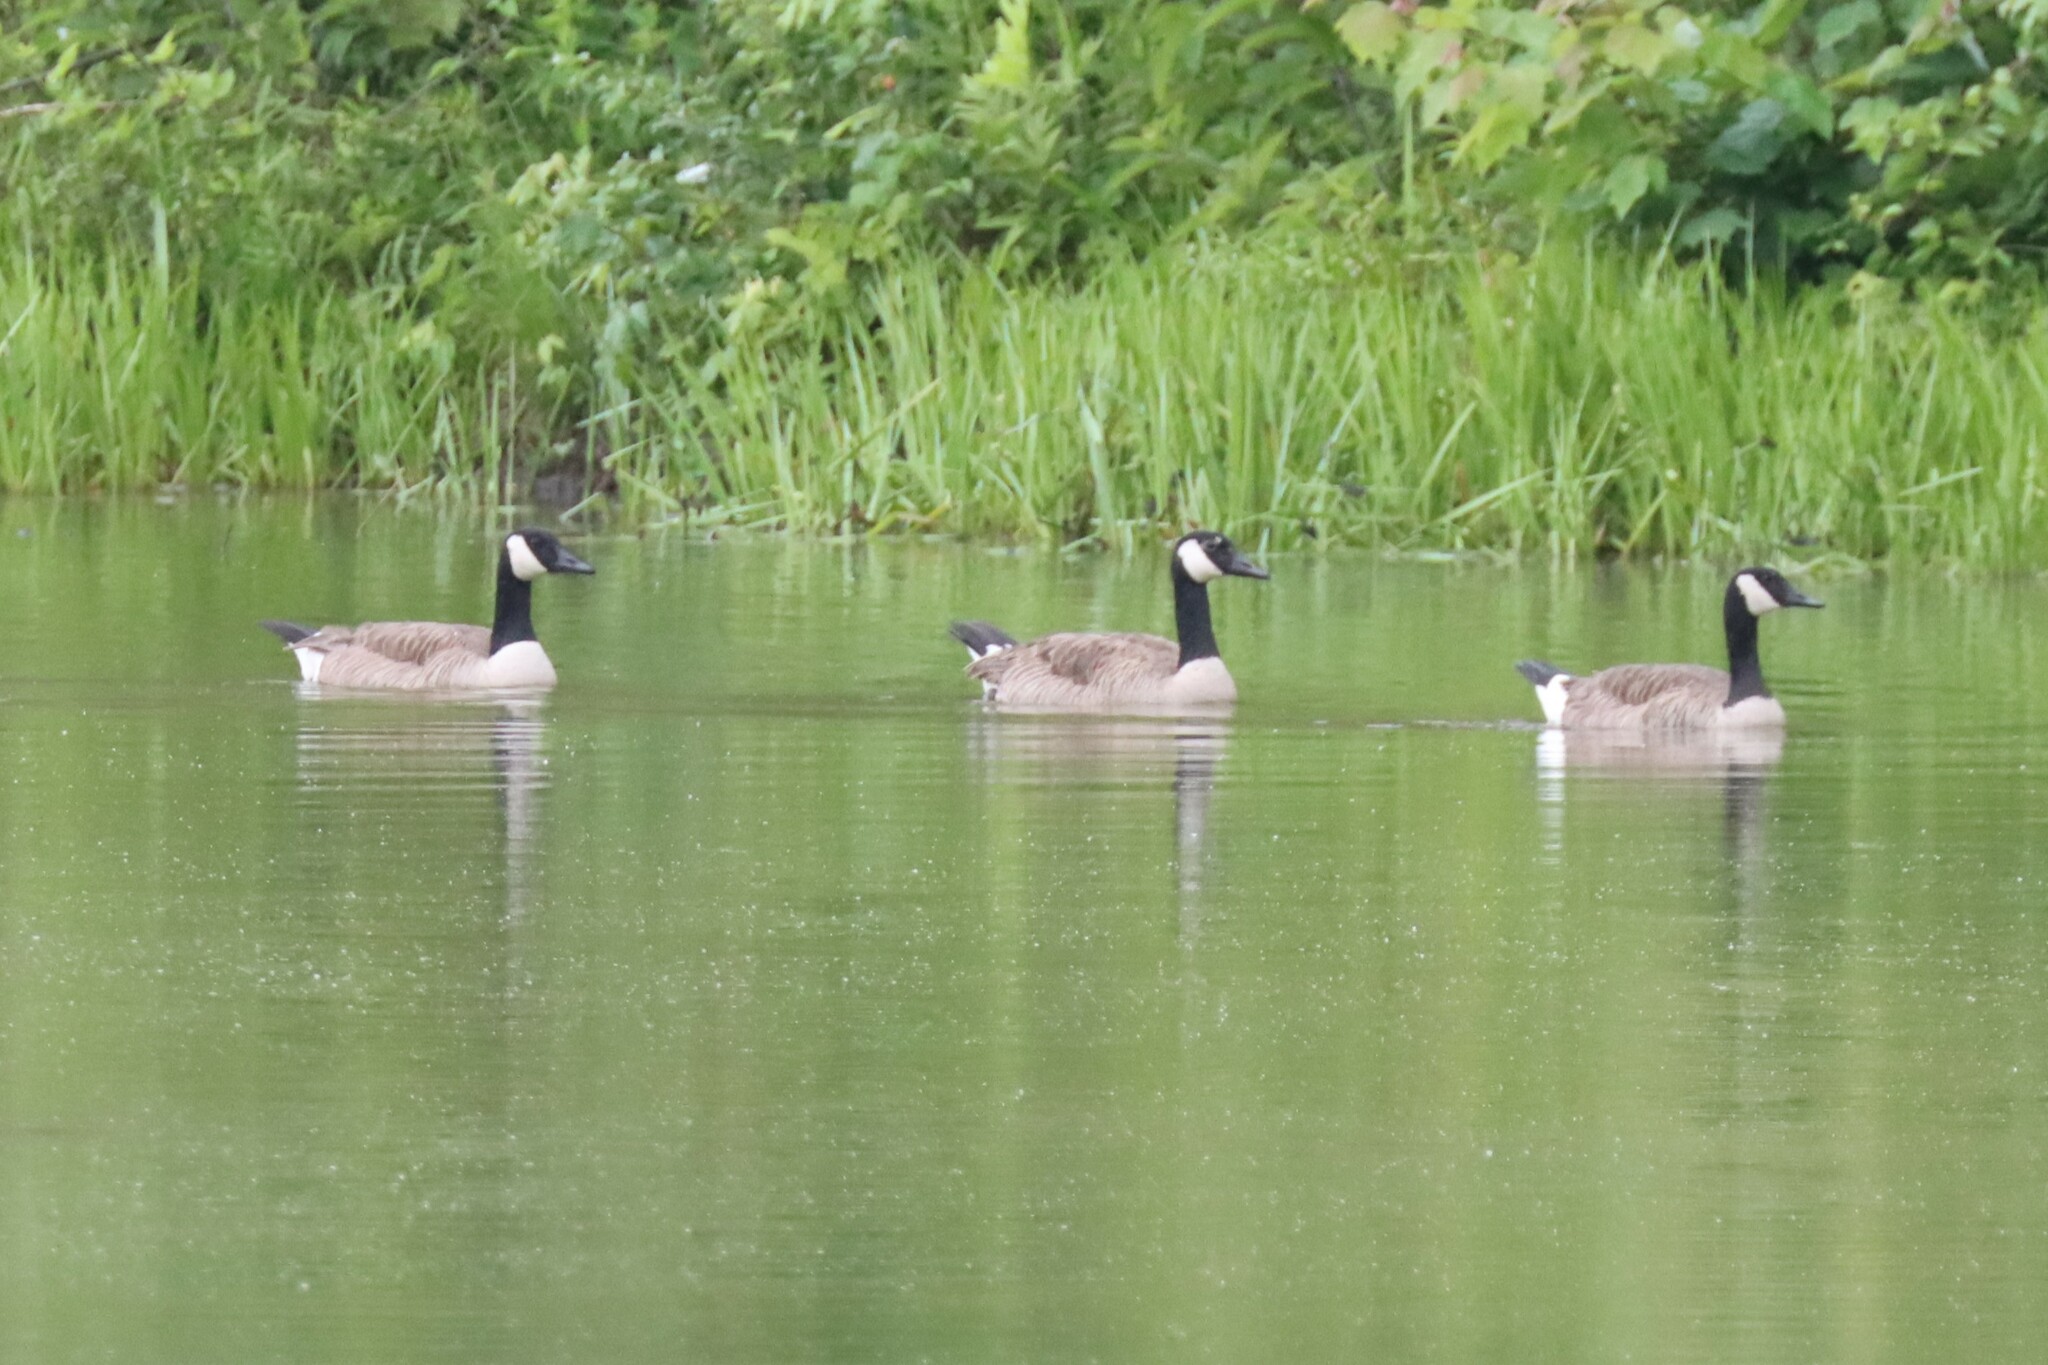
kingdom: Animalia
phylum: Chordata
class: Aves
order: Anseriformes
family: Anatidae
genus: Branta
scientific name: Branta canadensis
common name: Canada goose
